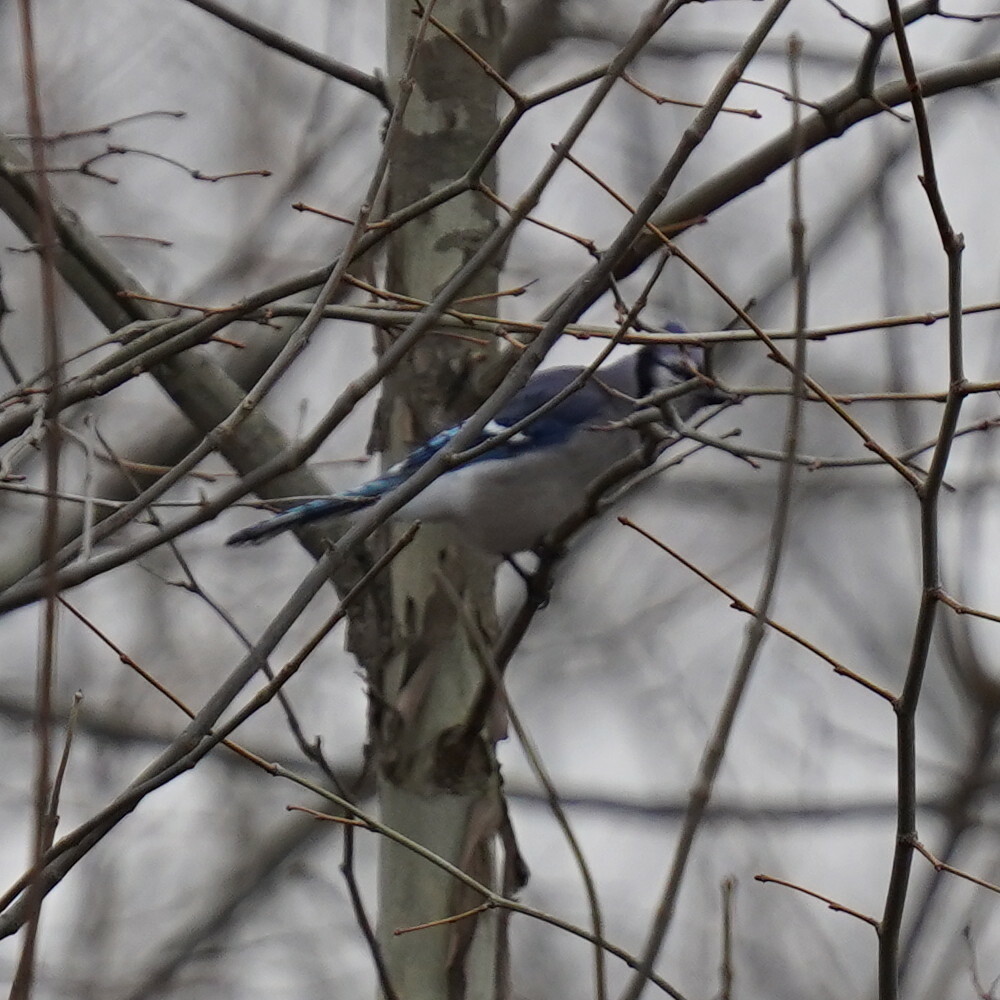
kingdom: Animalia
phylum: Chordata
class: Aves
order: Passeriformes
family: Corvidae
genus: Cyanocitta
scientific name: Cyanocitta cristata
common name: Blue jay
